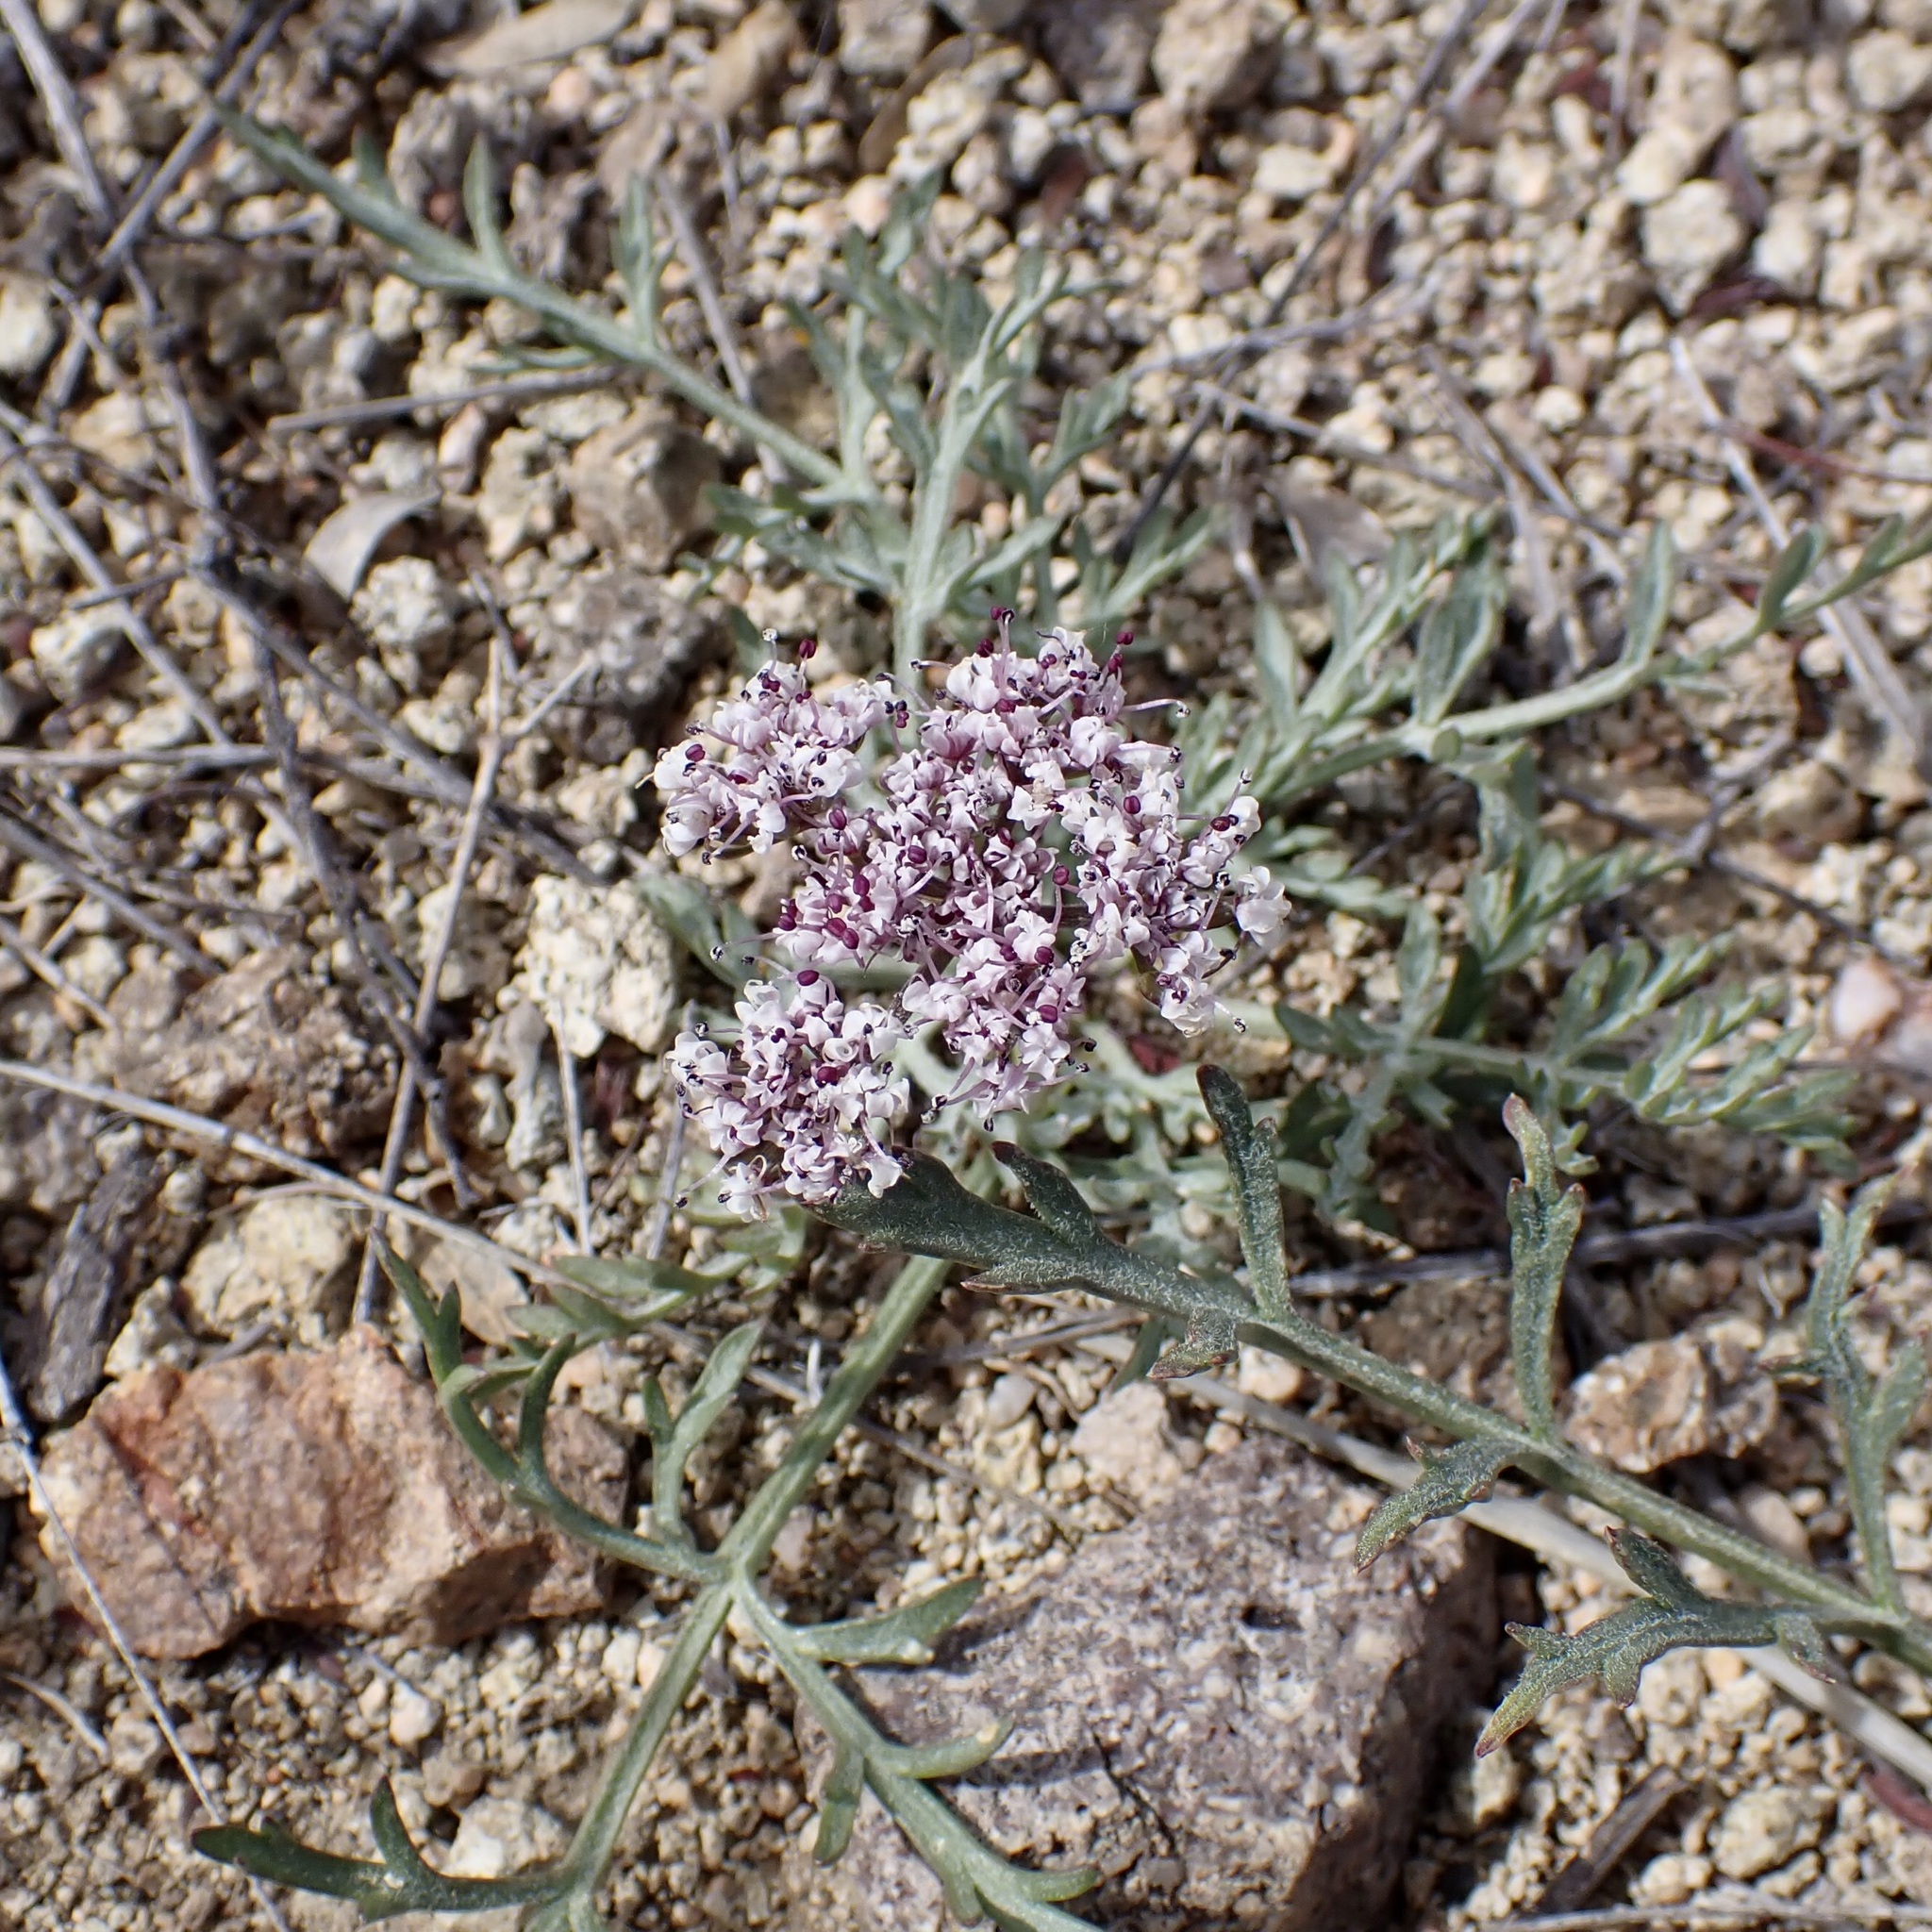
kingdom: Plantae
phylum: Tracheophyta
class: Magnoliopsida
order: Apiales
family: Apiaceae
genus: Lomatium
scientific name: Lomatium nevadense
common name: Nevada lomatium
